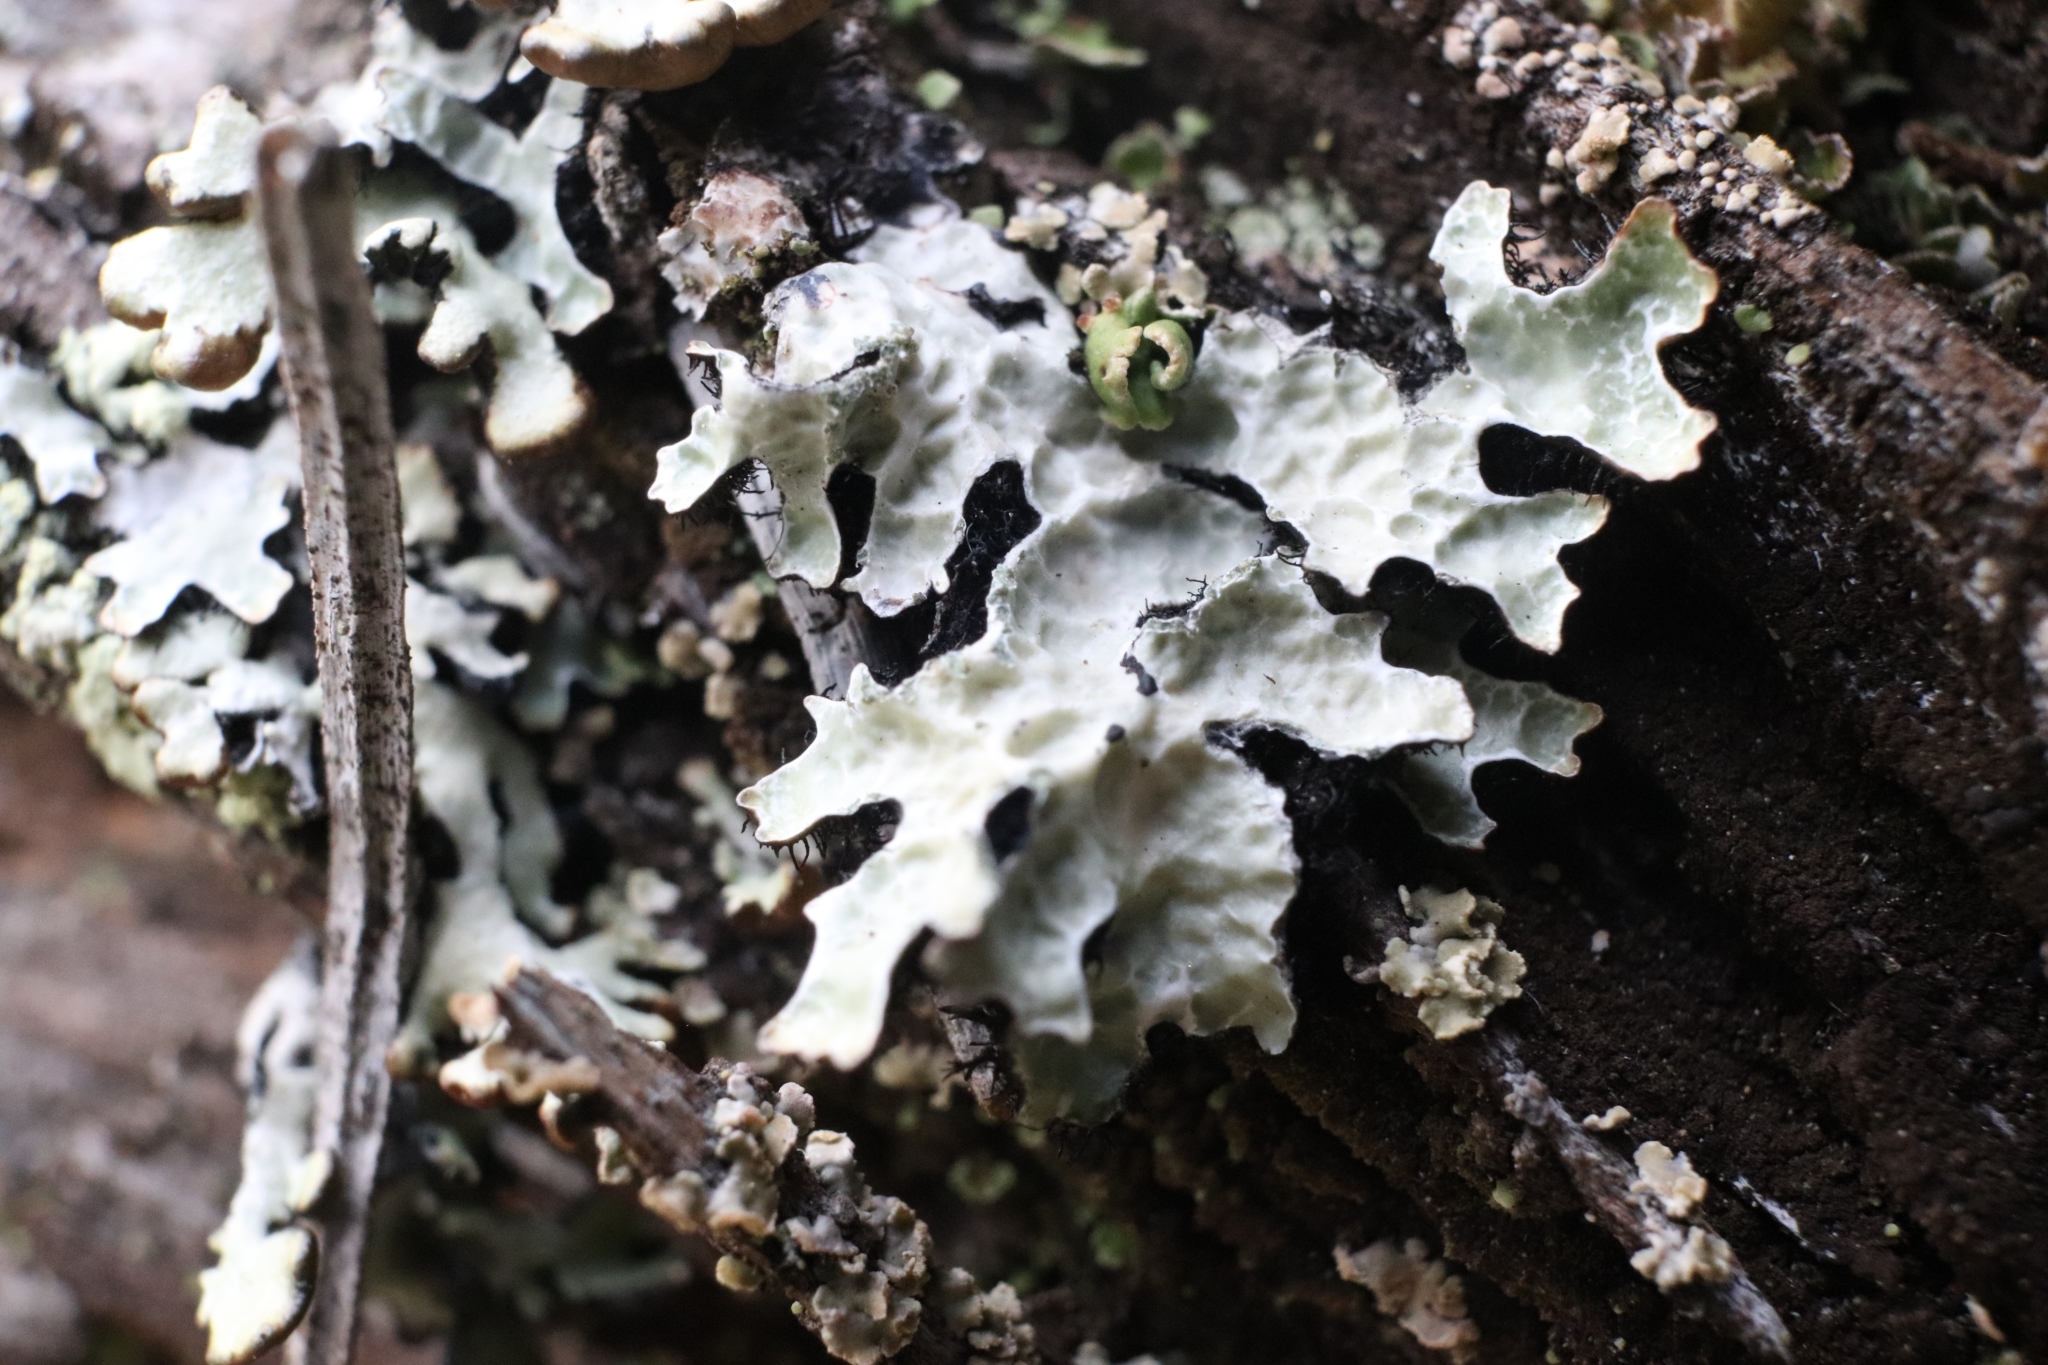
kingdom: Fungi
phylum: Ascomycota
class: Lecanoromycetes
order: Lecanorales
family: Parmeliaceae
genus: Parmelia
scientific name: Parmelia sulcata
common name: Netted shield lichen
